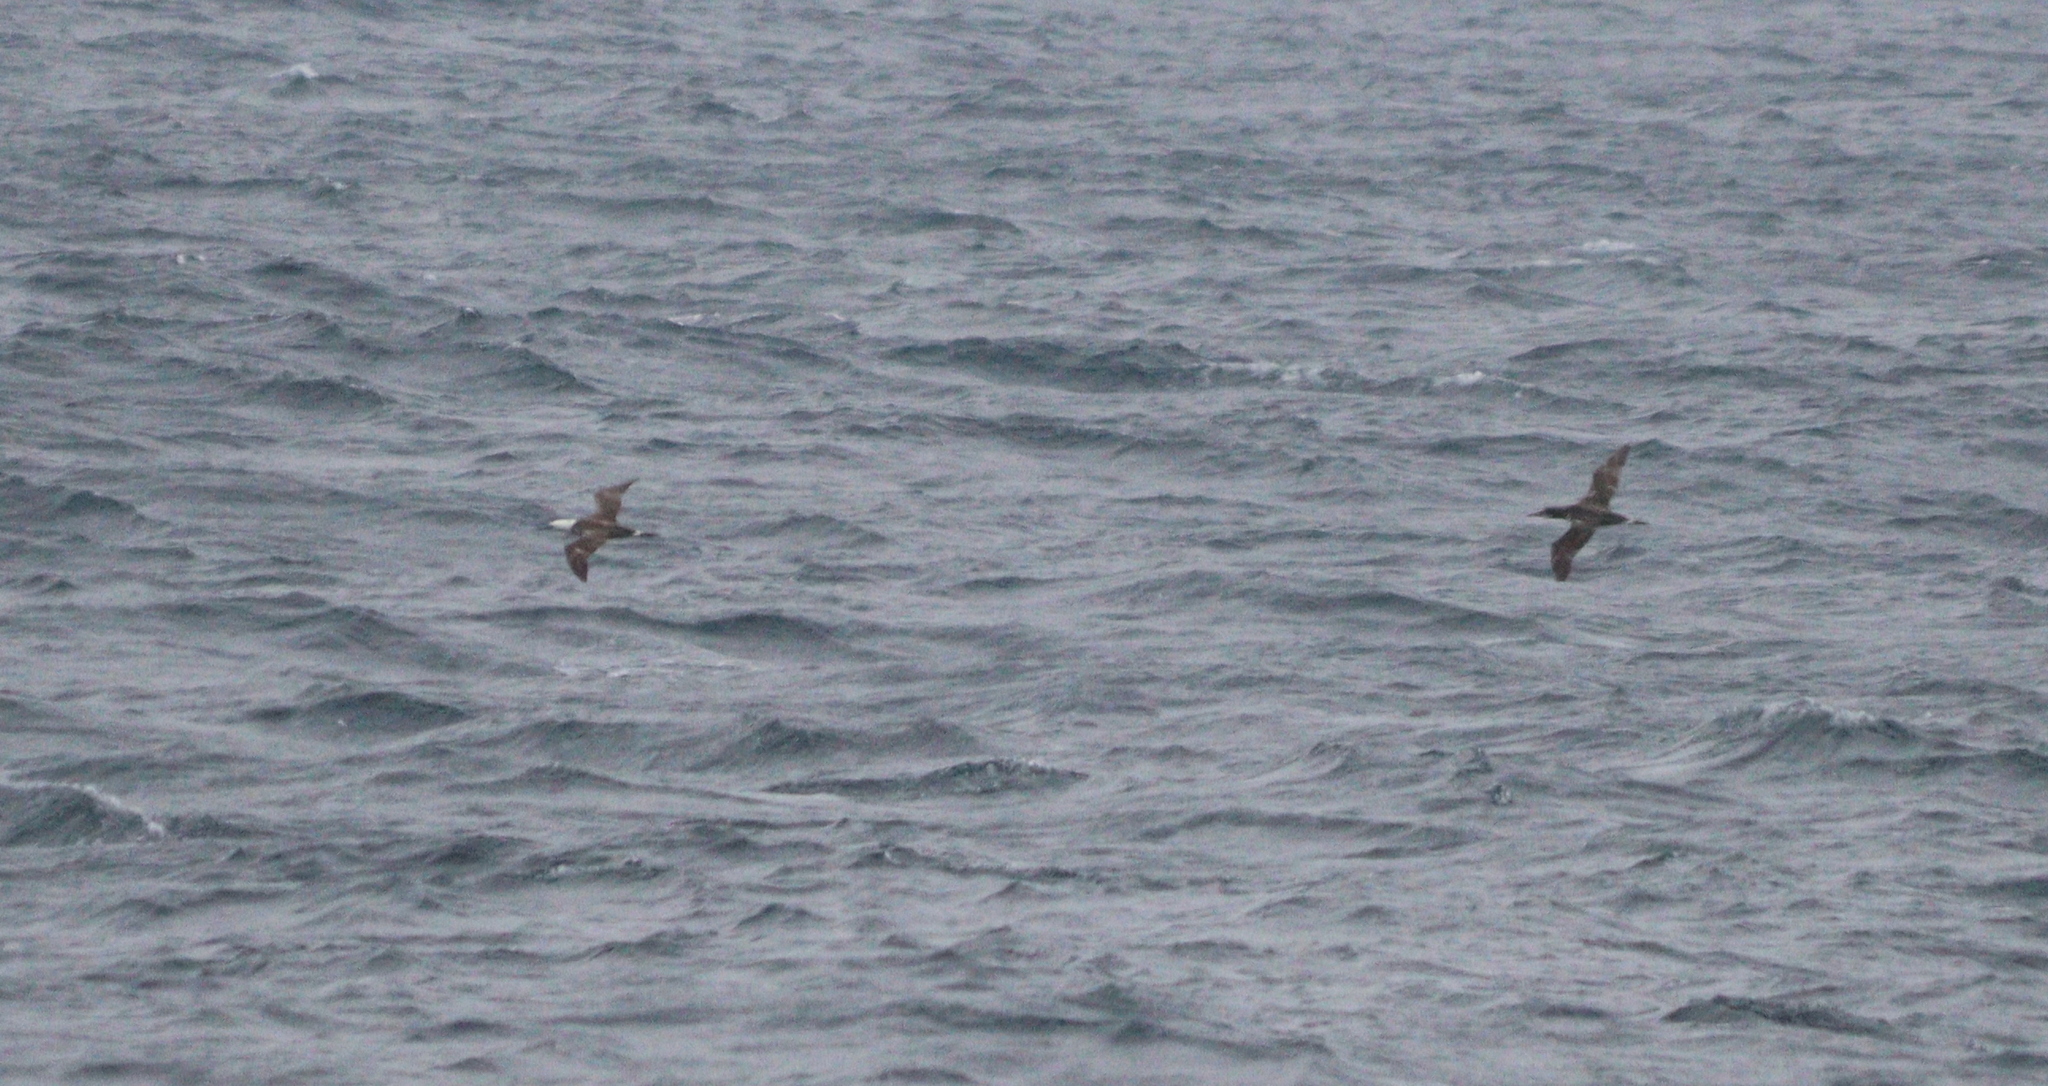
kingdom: Animalia
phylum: Chordata
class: Aves
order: Suliformes
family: Sulidae
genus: Morus
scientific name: Morus bassanus
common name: Northern gannet
